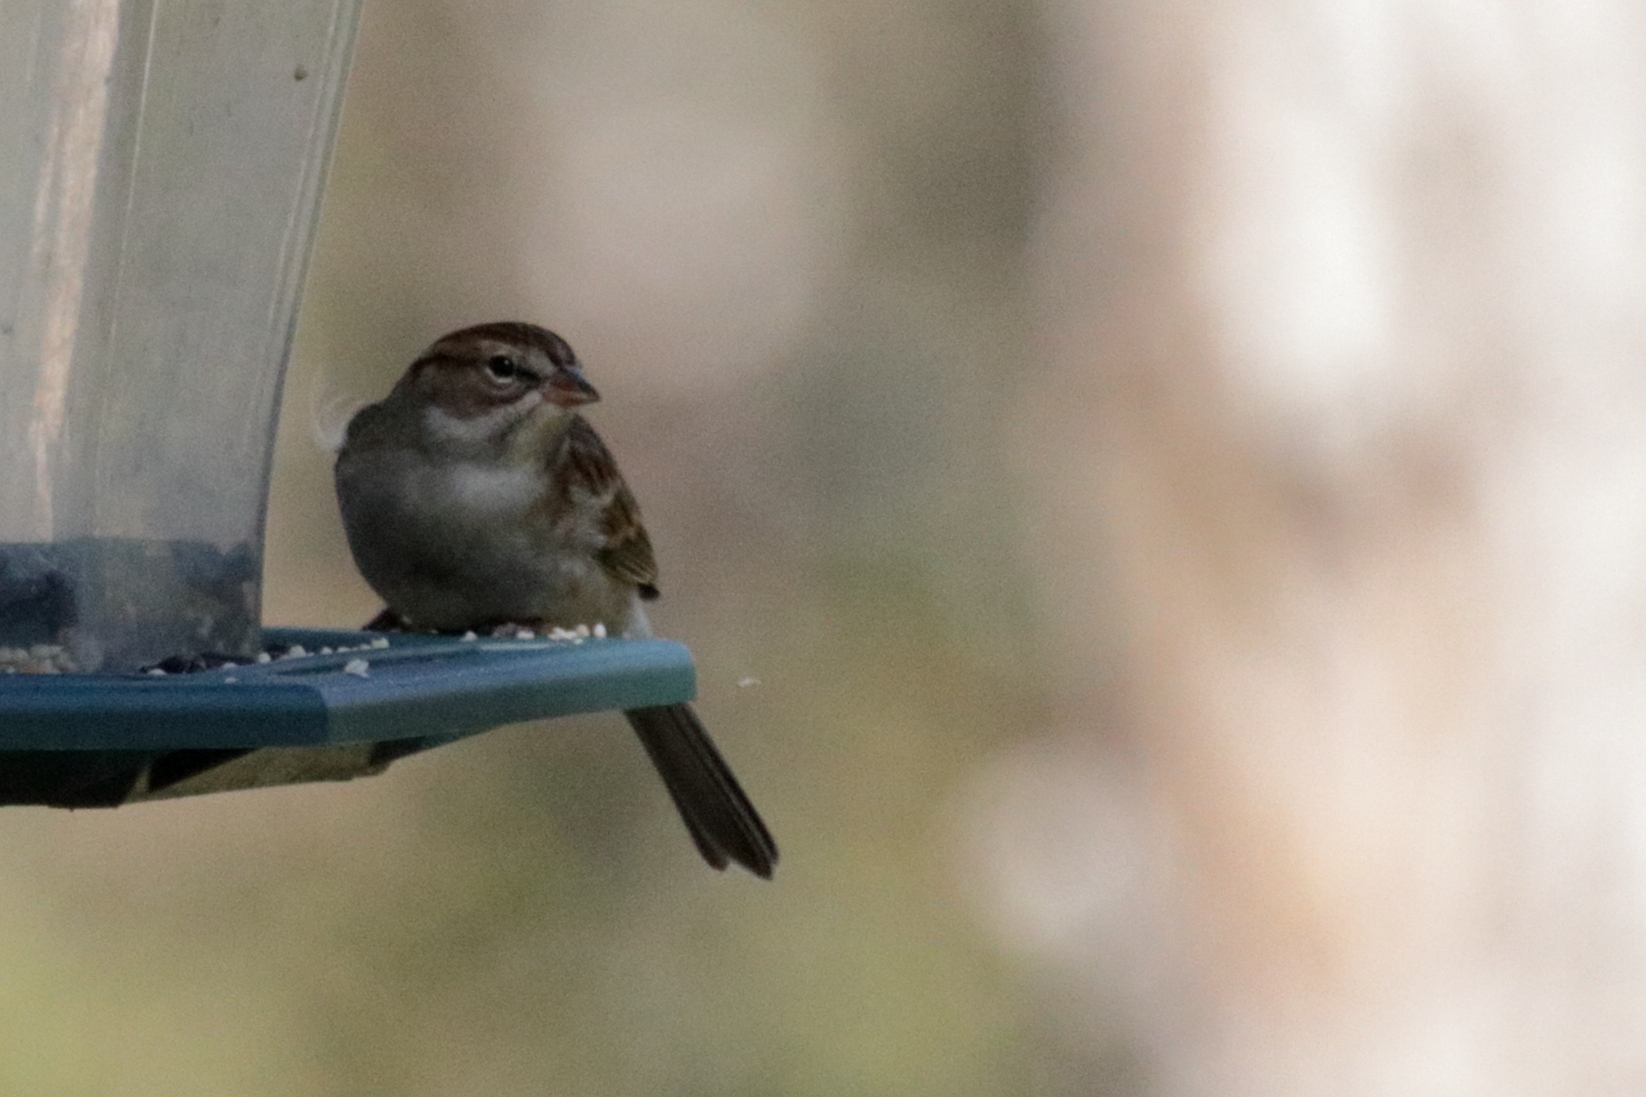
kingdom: Animalia
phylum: Chordata
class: Aves
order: Passeriformes
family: Passerellidae
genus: Spizella
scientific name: Spizella passerina
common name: Chipping sparrow
